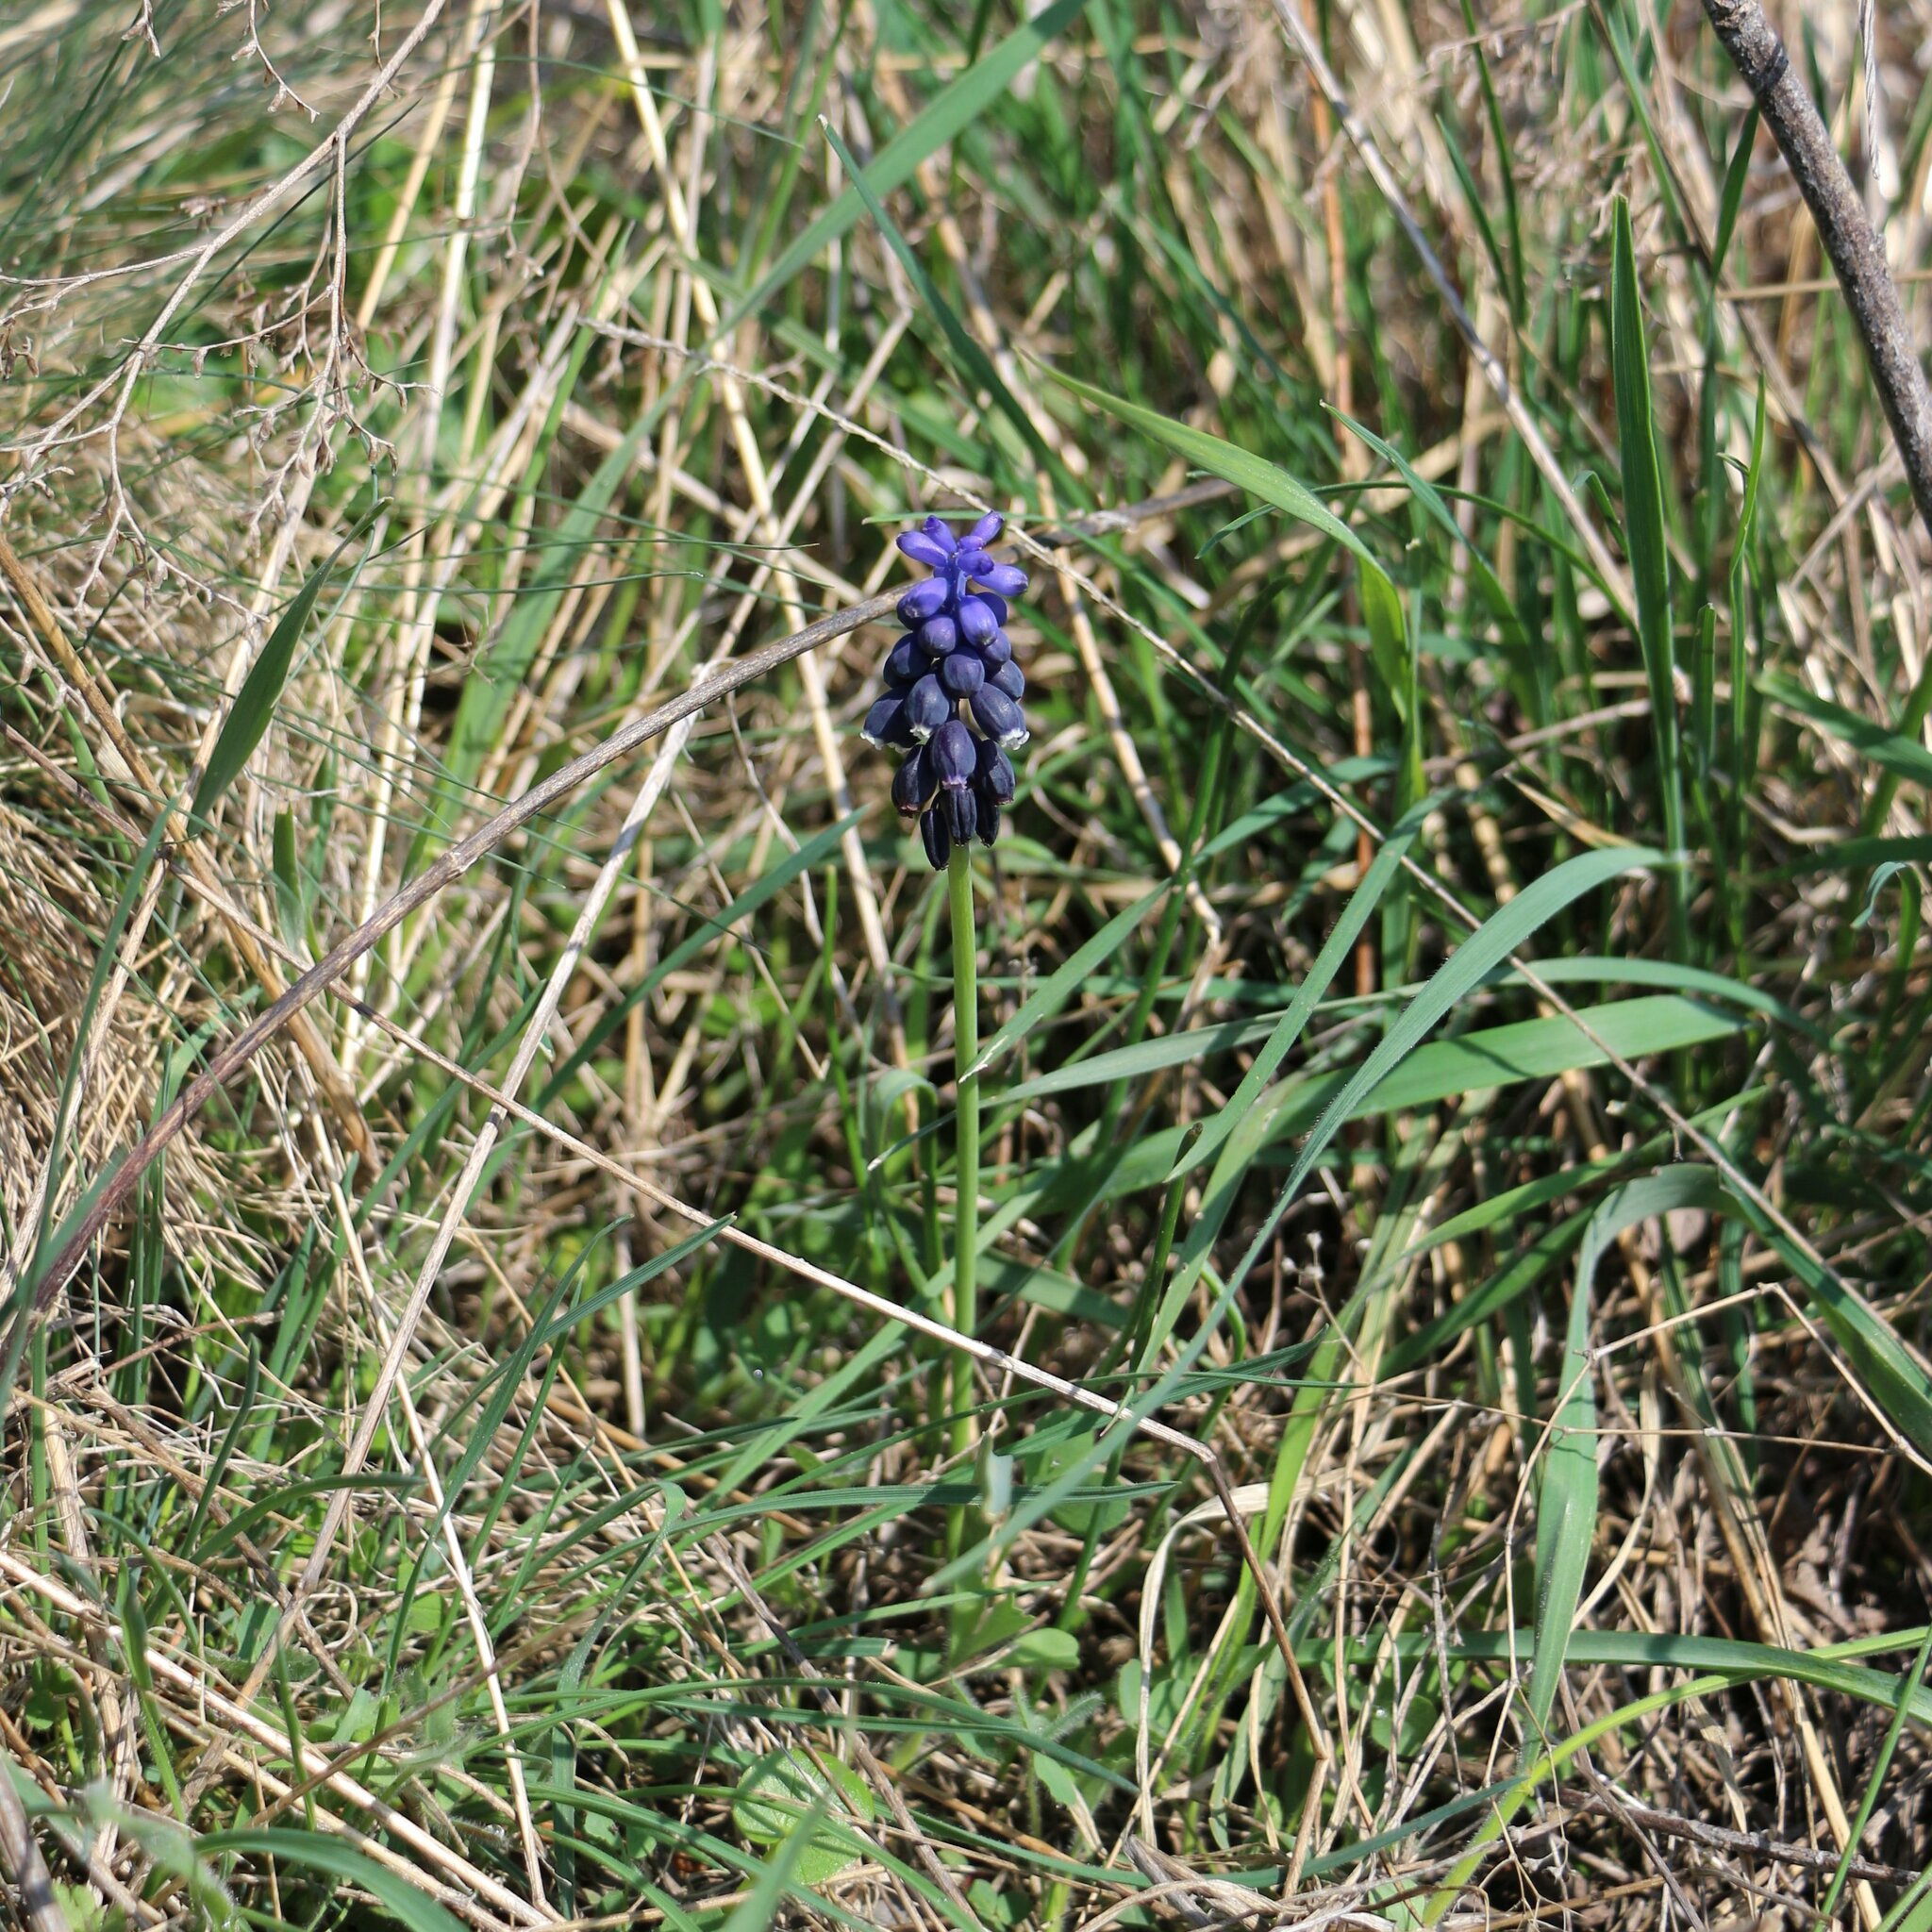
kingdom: Plantae
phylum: Tracheophyta
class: Liliopsida
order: Asparagales
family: Asparagaceae
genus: Muscari
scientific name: Muscari neglectum
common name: Grape-hyacinth
